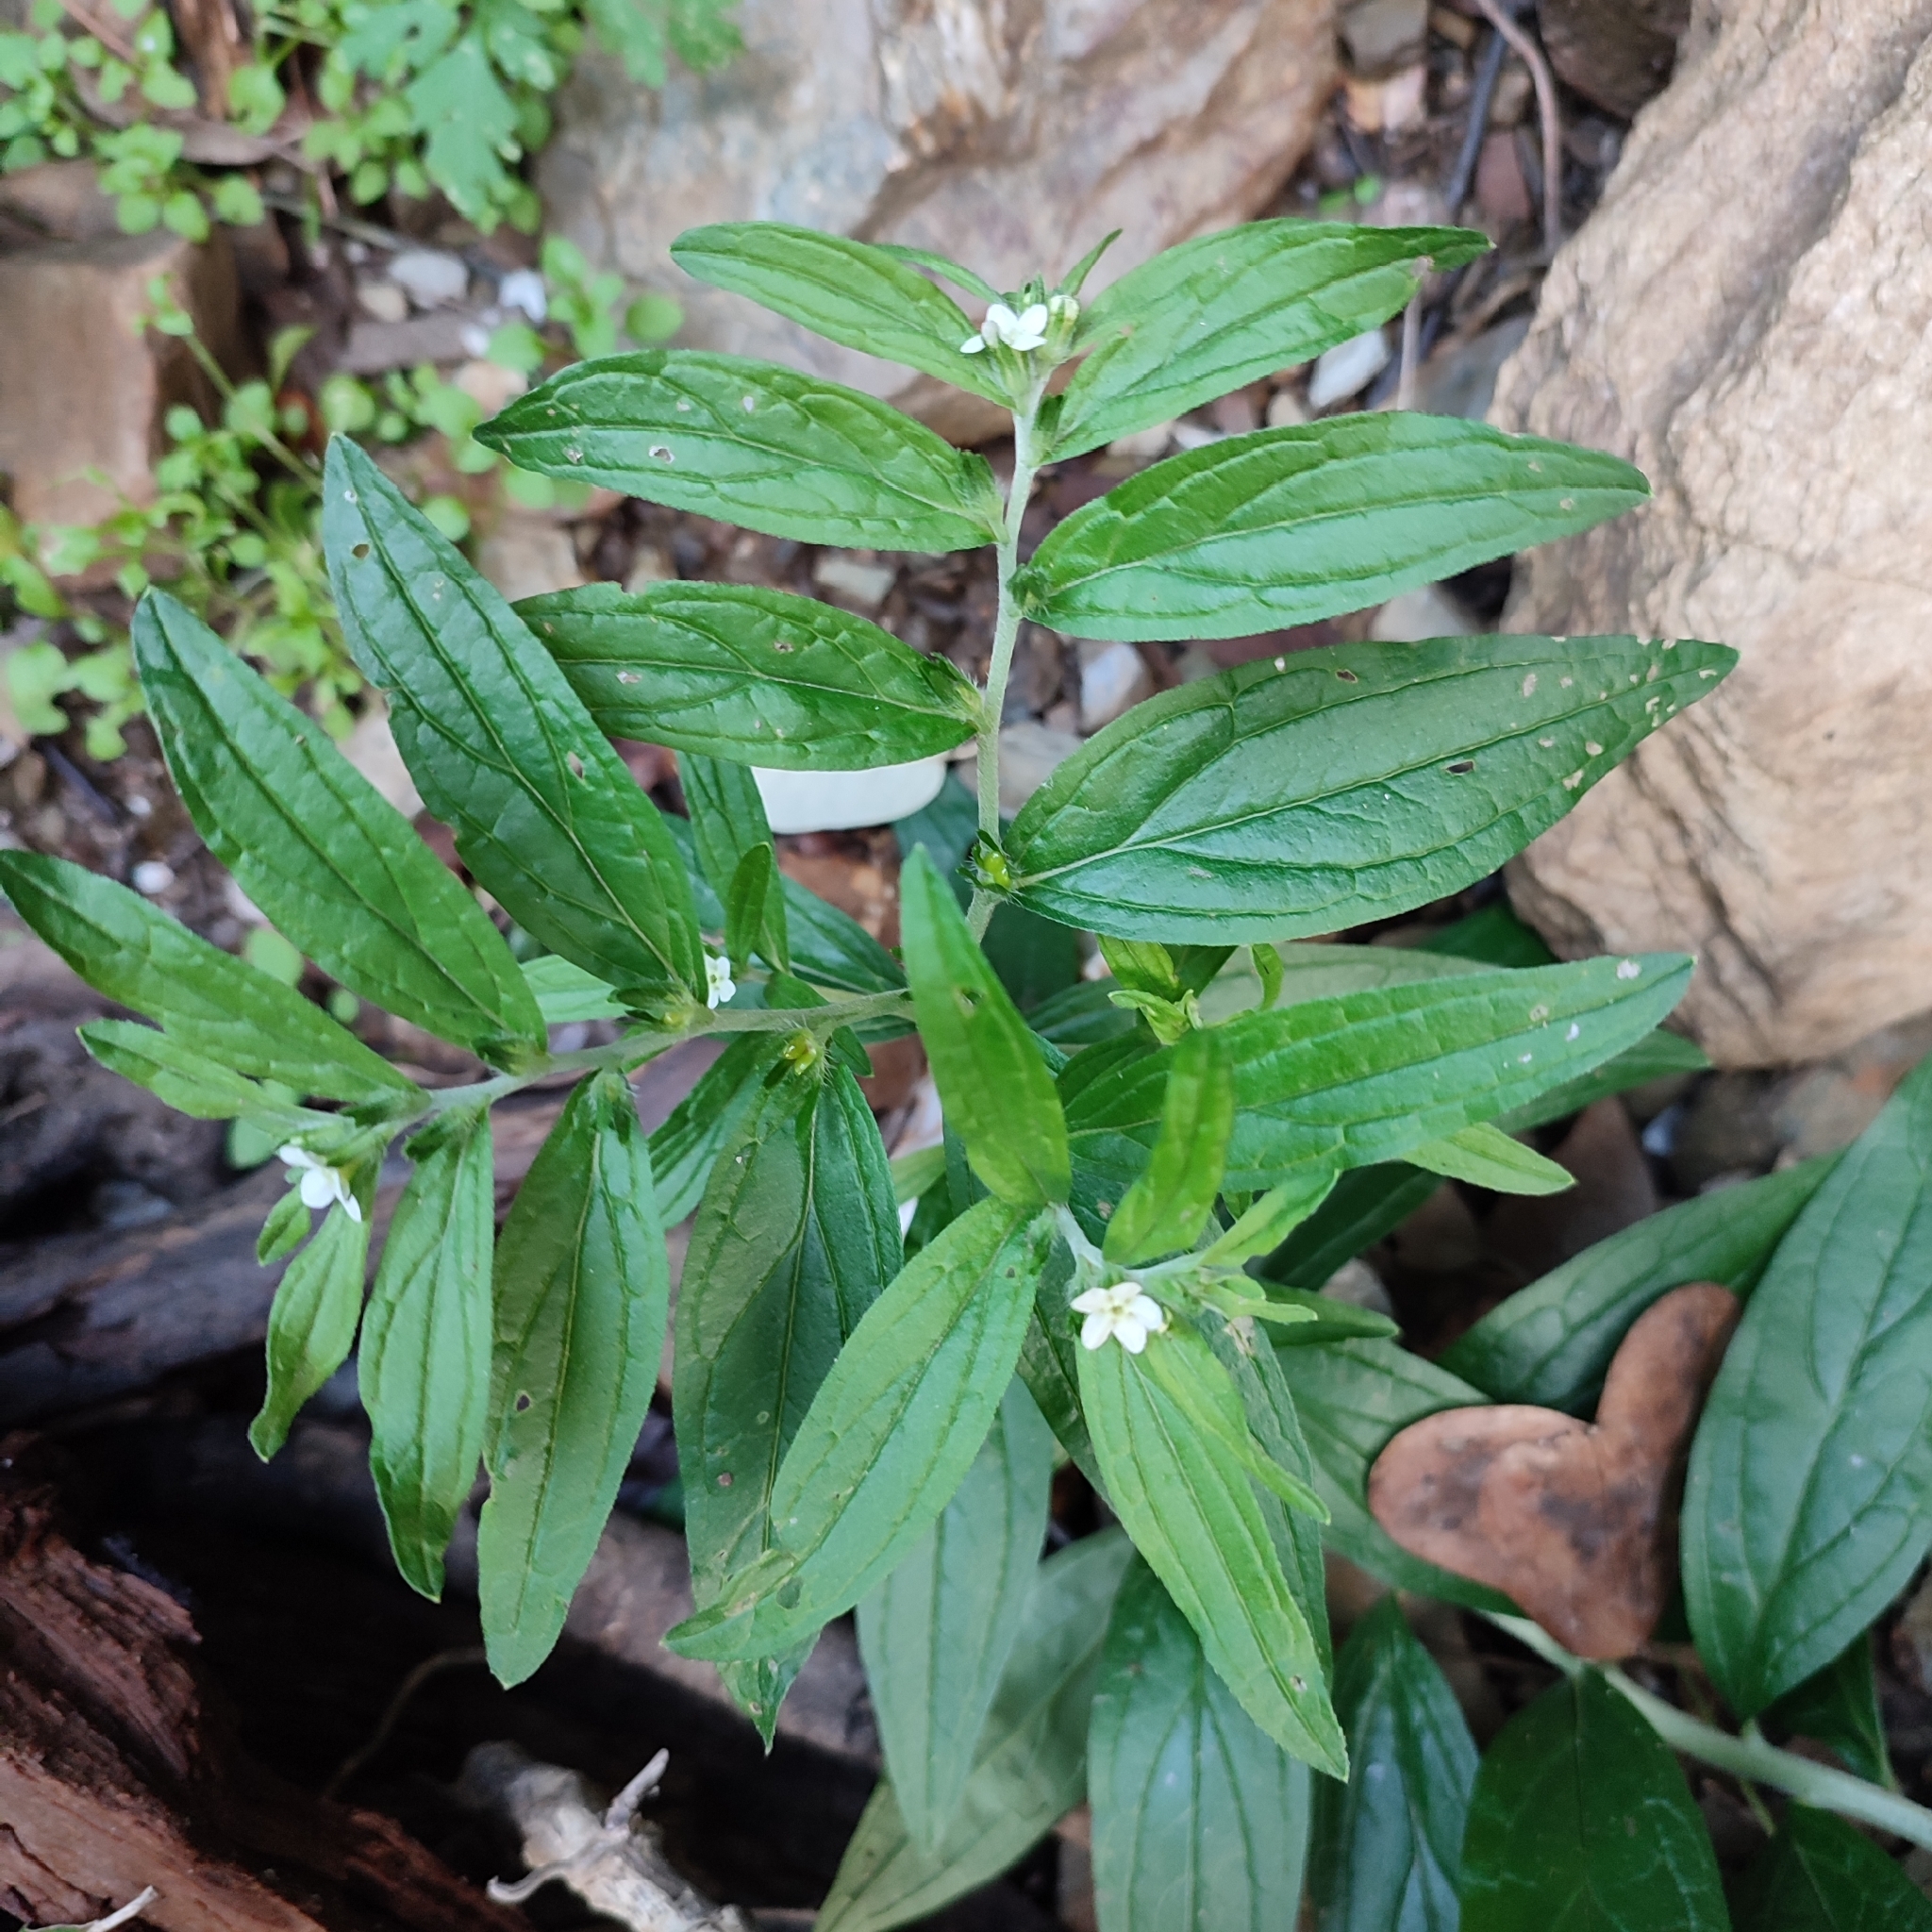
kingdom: Plantae
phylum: Tracheophyta
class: Magnoliopsida
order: Boraginales
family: Boraginaceae
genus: Lithospermum
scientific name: Lithospermum officinale
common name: Common gromwell
